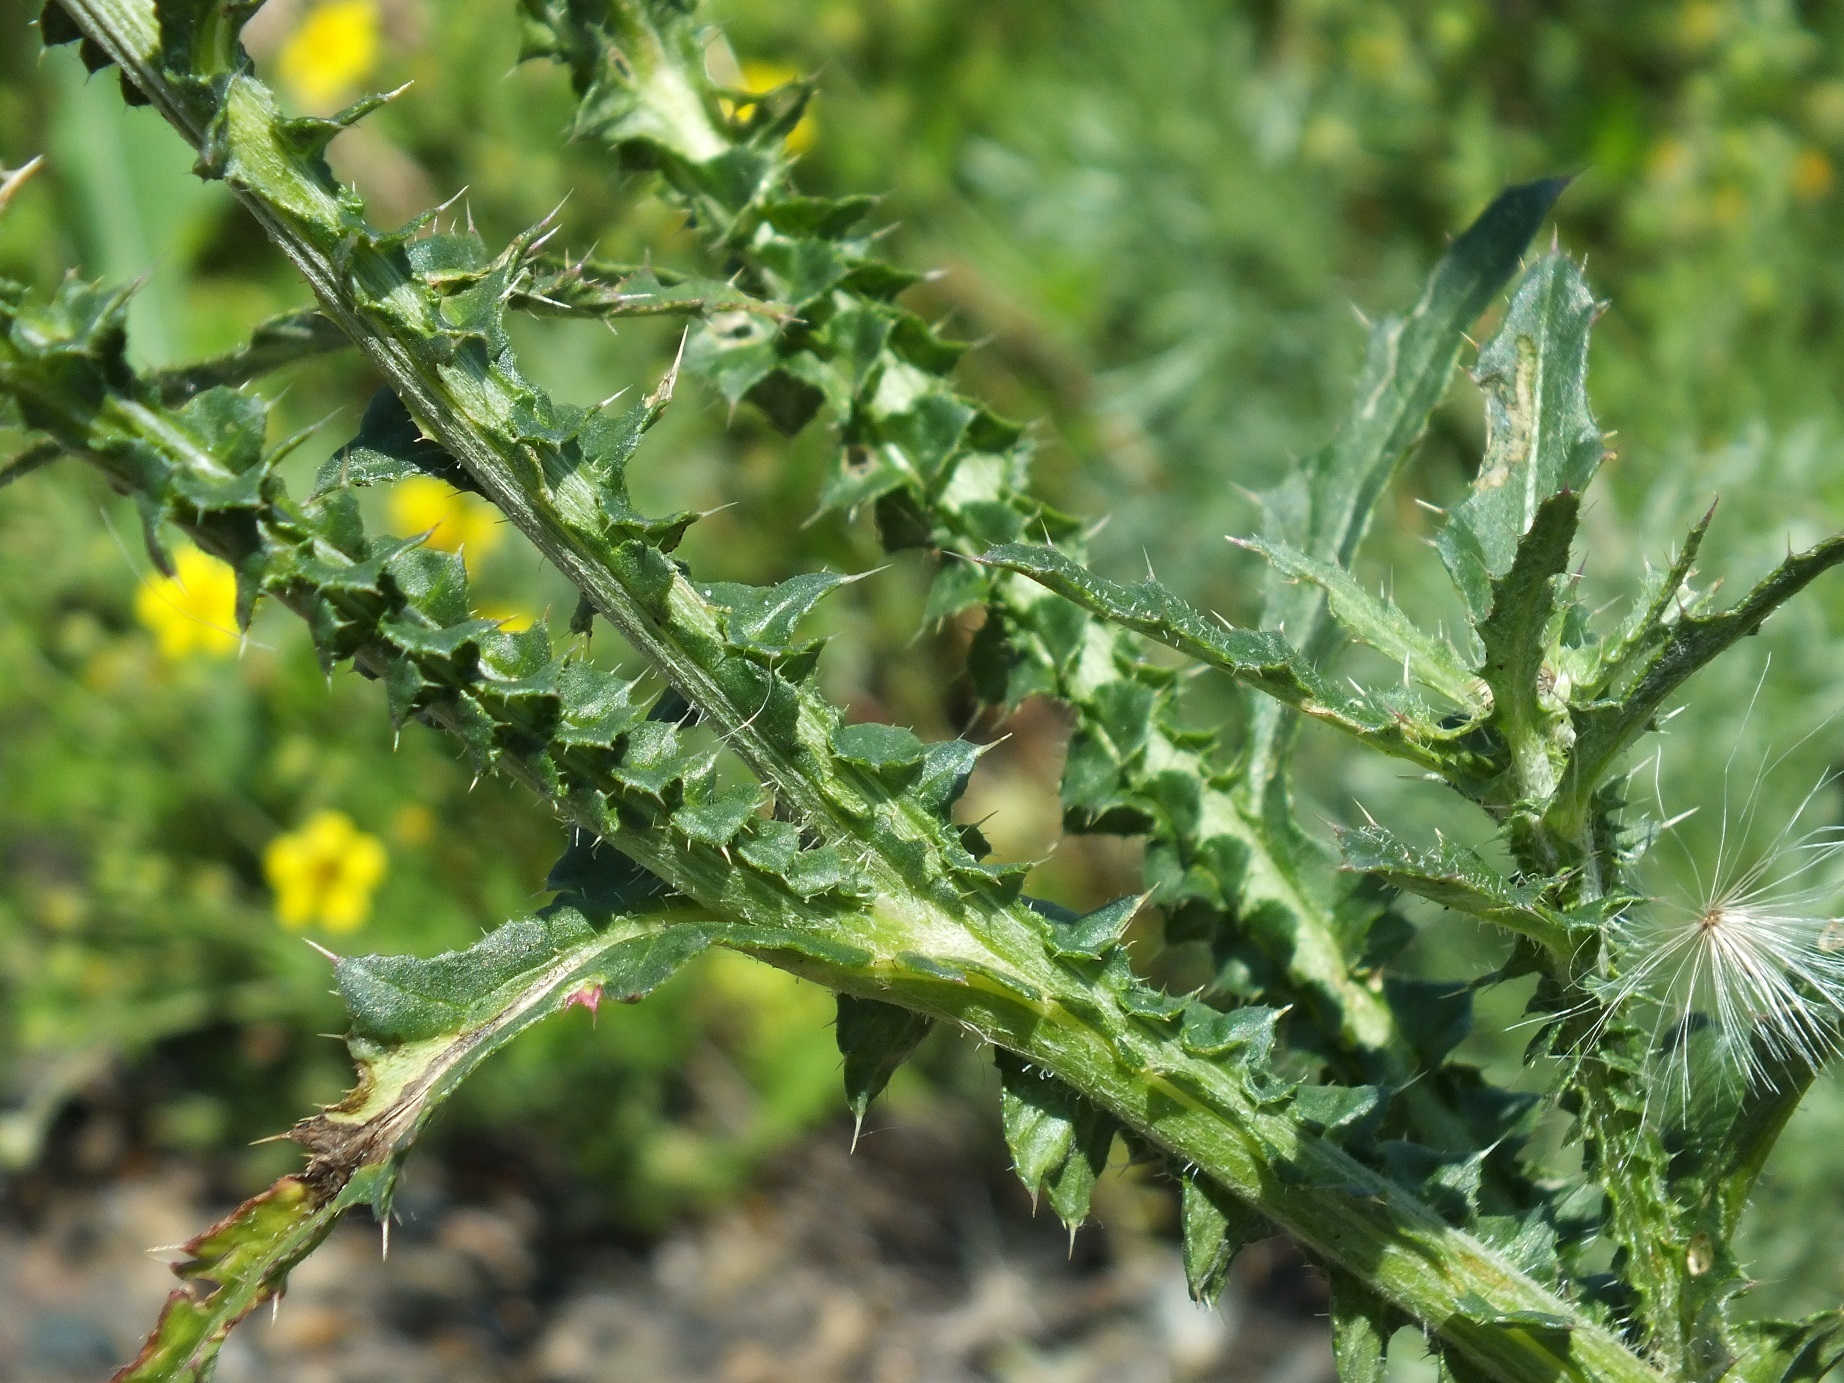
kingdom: Plantae
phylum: Tracheophyta
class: Magnoliopsida
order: Asterales
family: Asteraceae
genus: Carduus
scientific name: Carduus uncinatus
